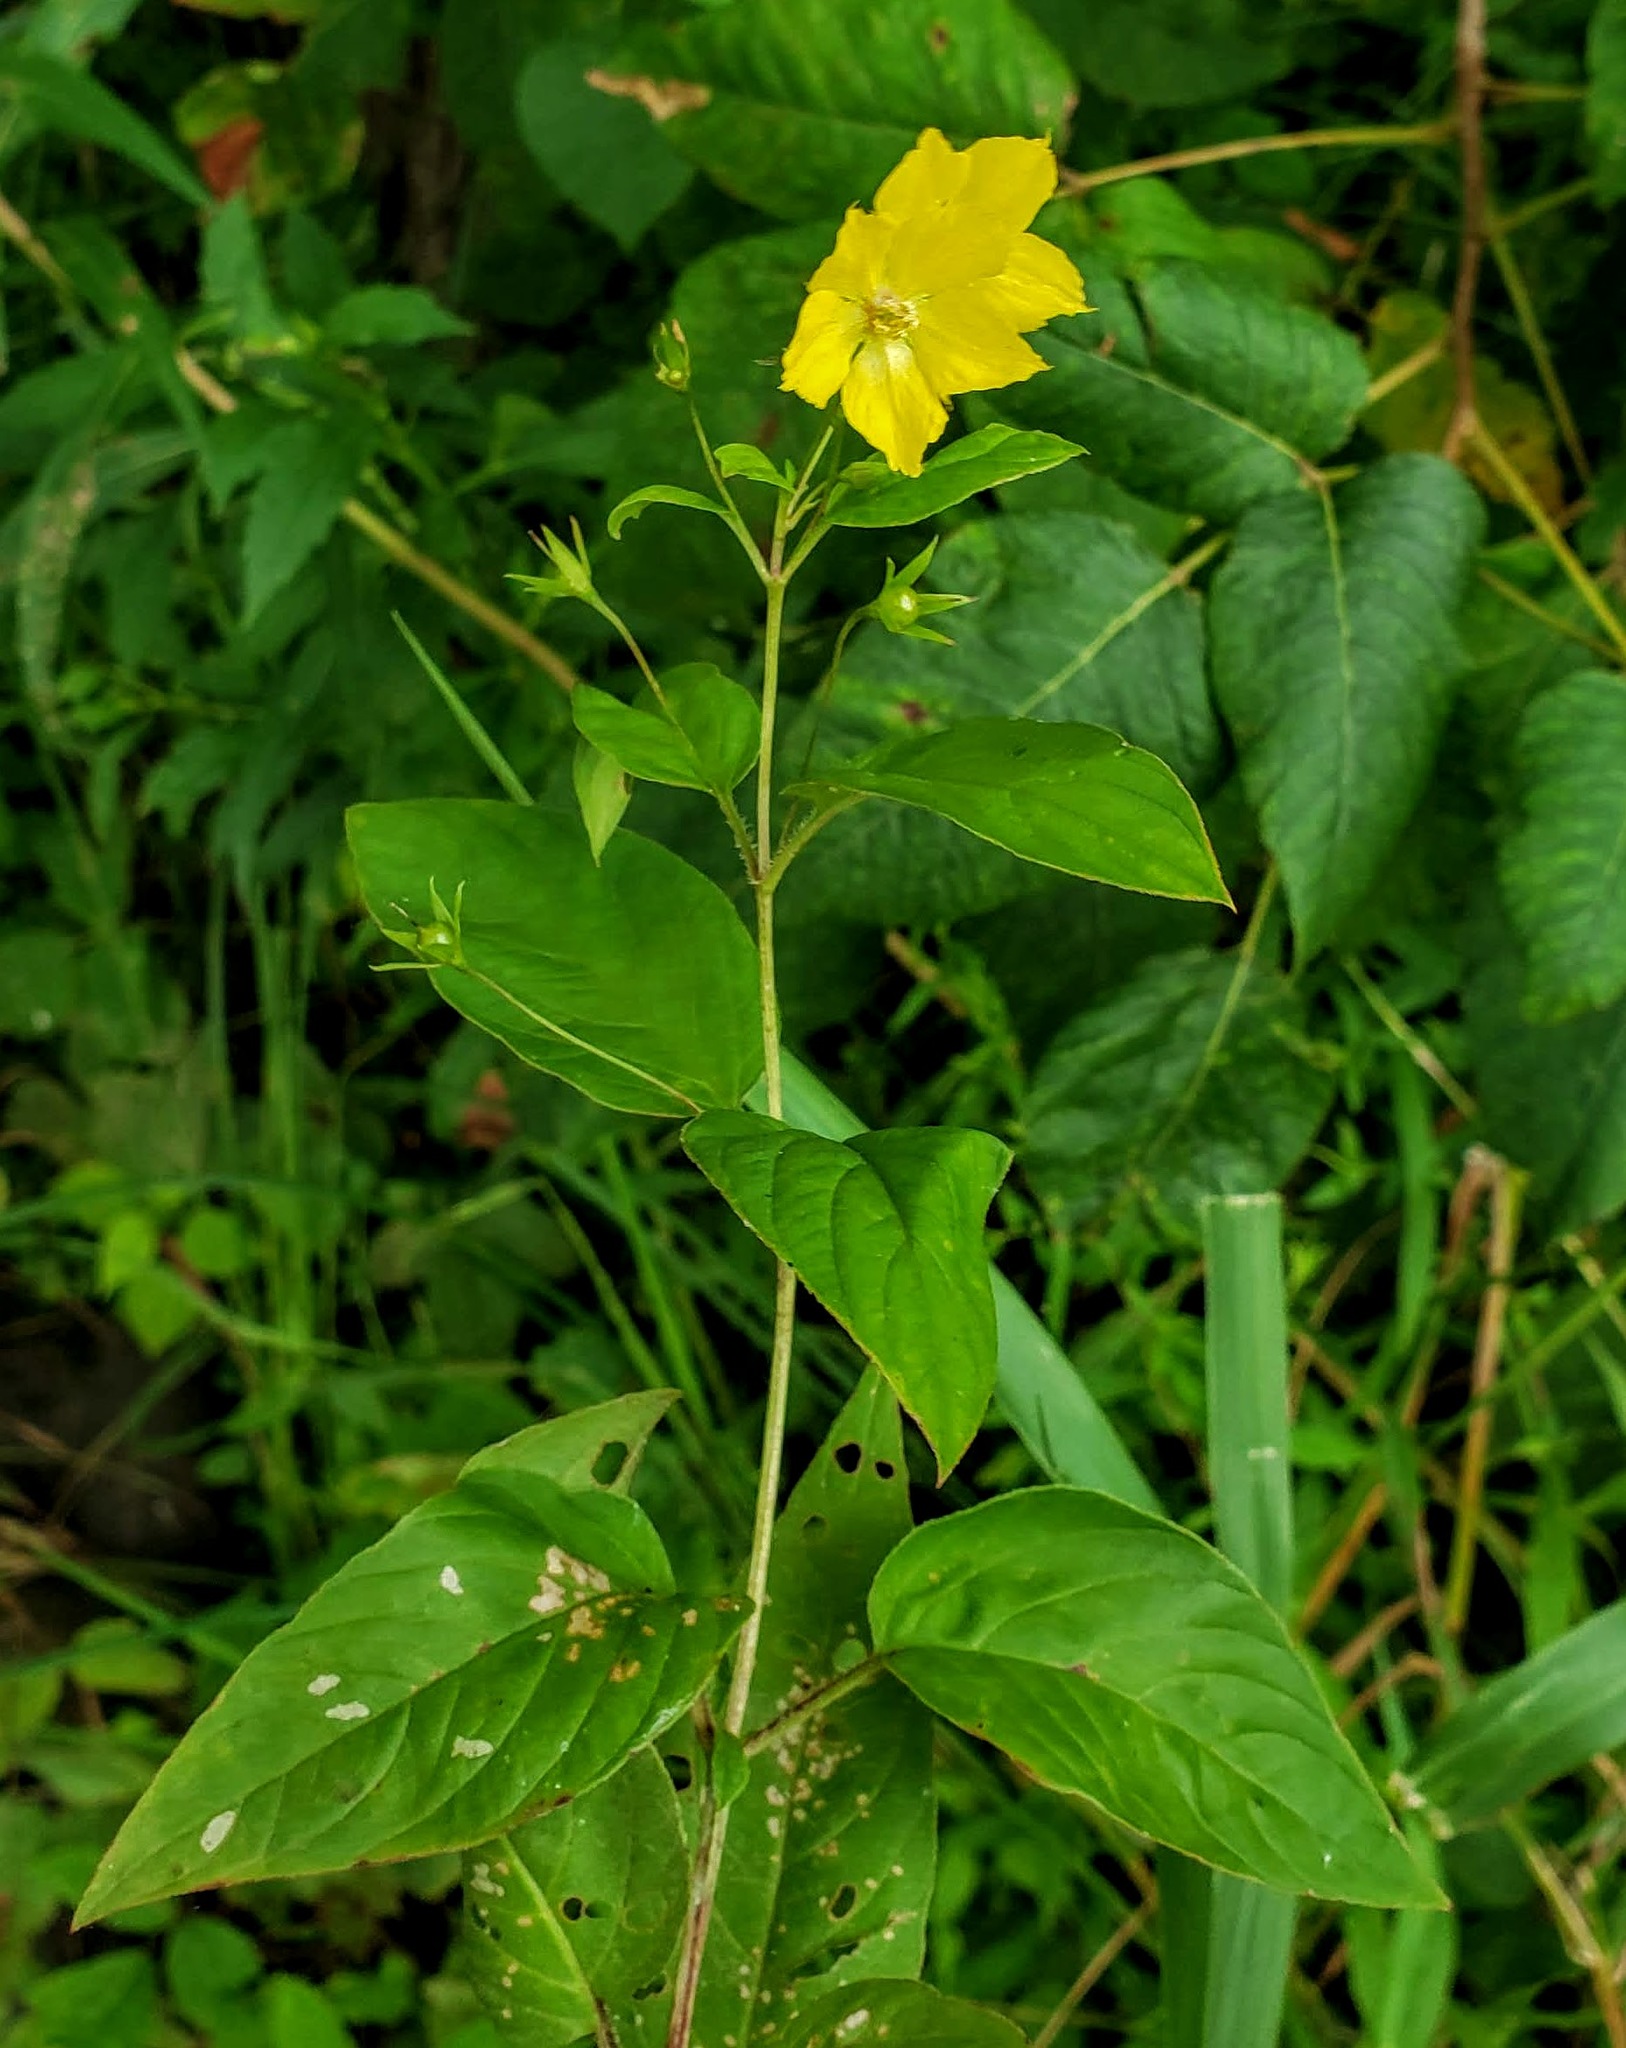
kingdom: Plantae
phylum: Tracheophyta
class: Magnoliopsida
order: Ericales
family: Primulaceae
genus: Lysimachia
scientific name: Lysimachia ciliata
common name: Fringed loosestrife
